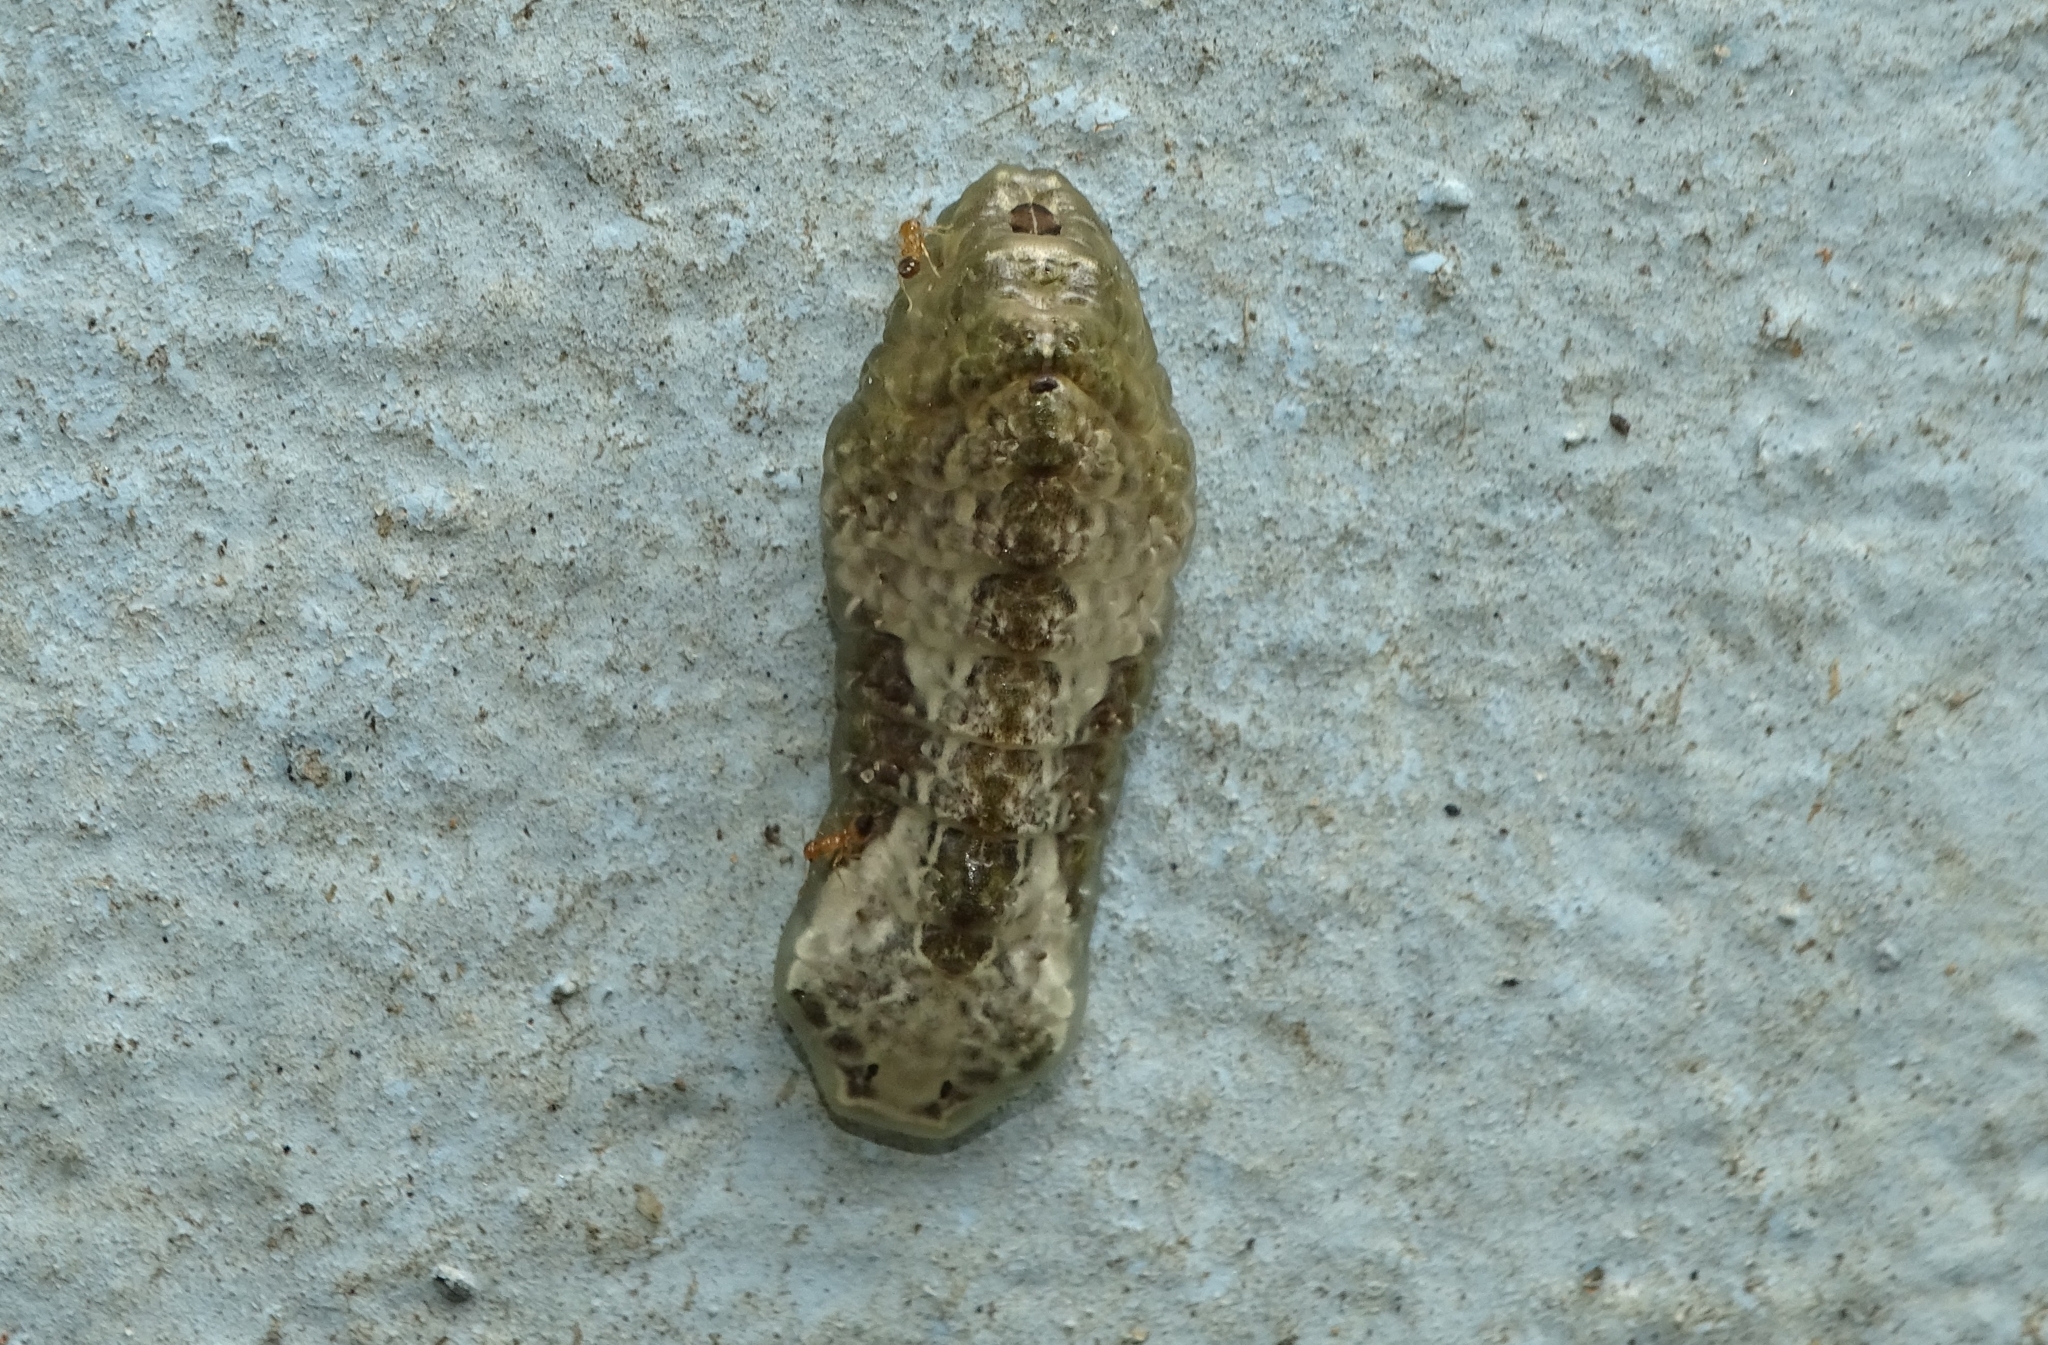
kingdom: Animalia
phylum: Arthropoda
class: Insecta
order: Lepidoptera
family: Lycaenidae
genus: Tajuria
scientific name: Tajuria cippus
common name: Peacock royal
